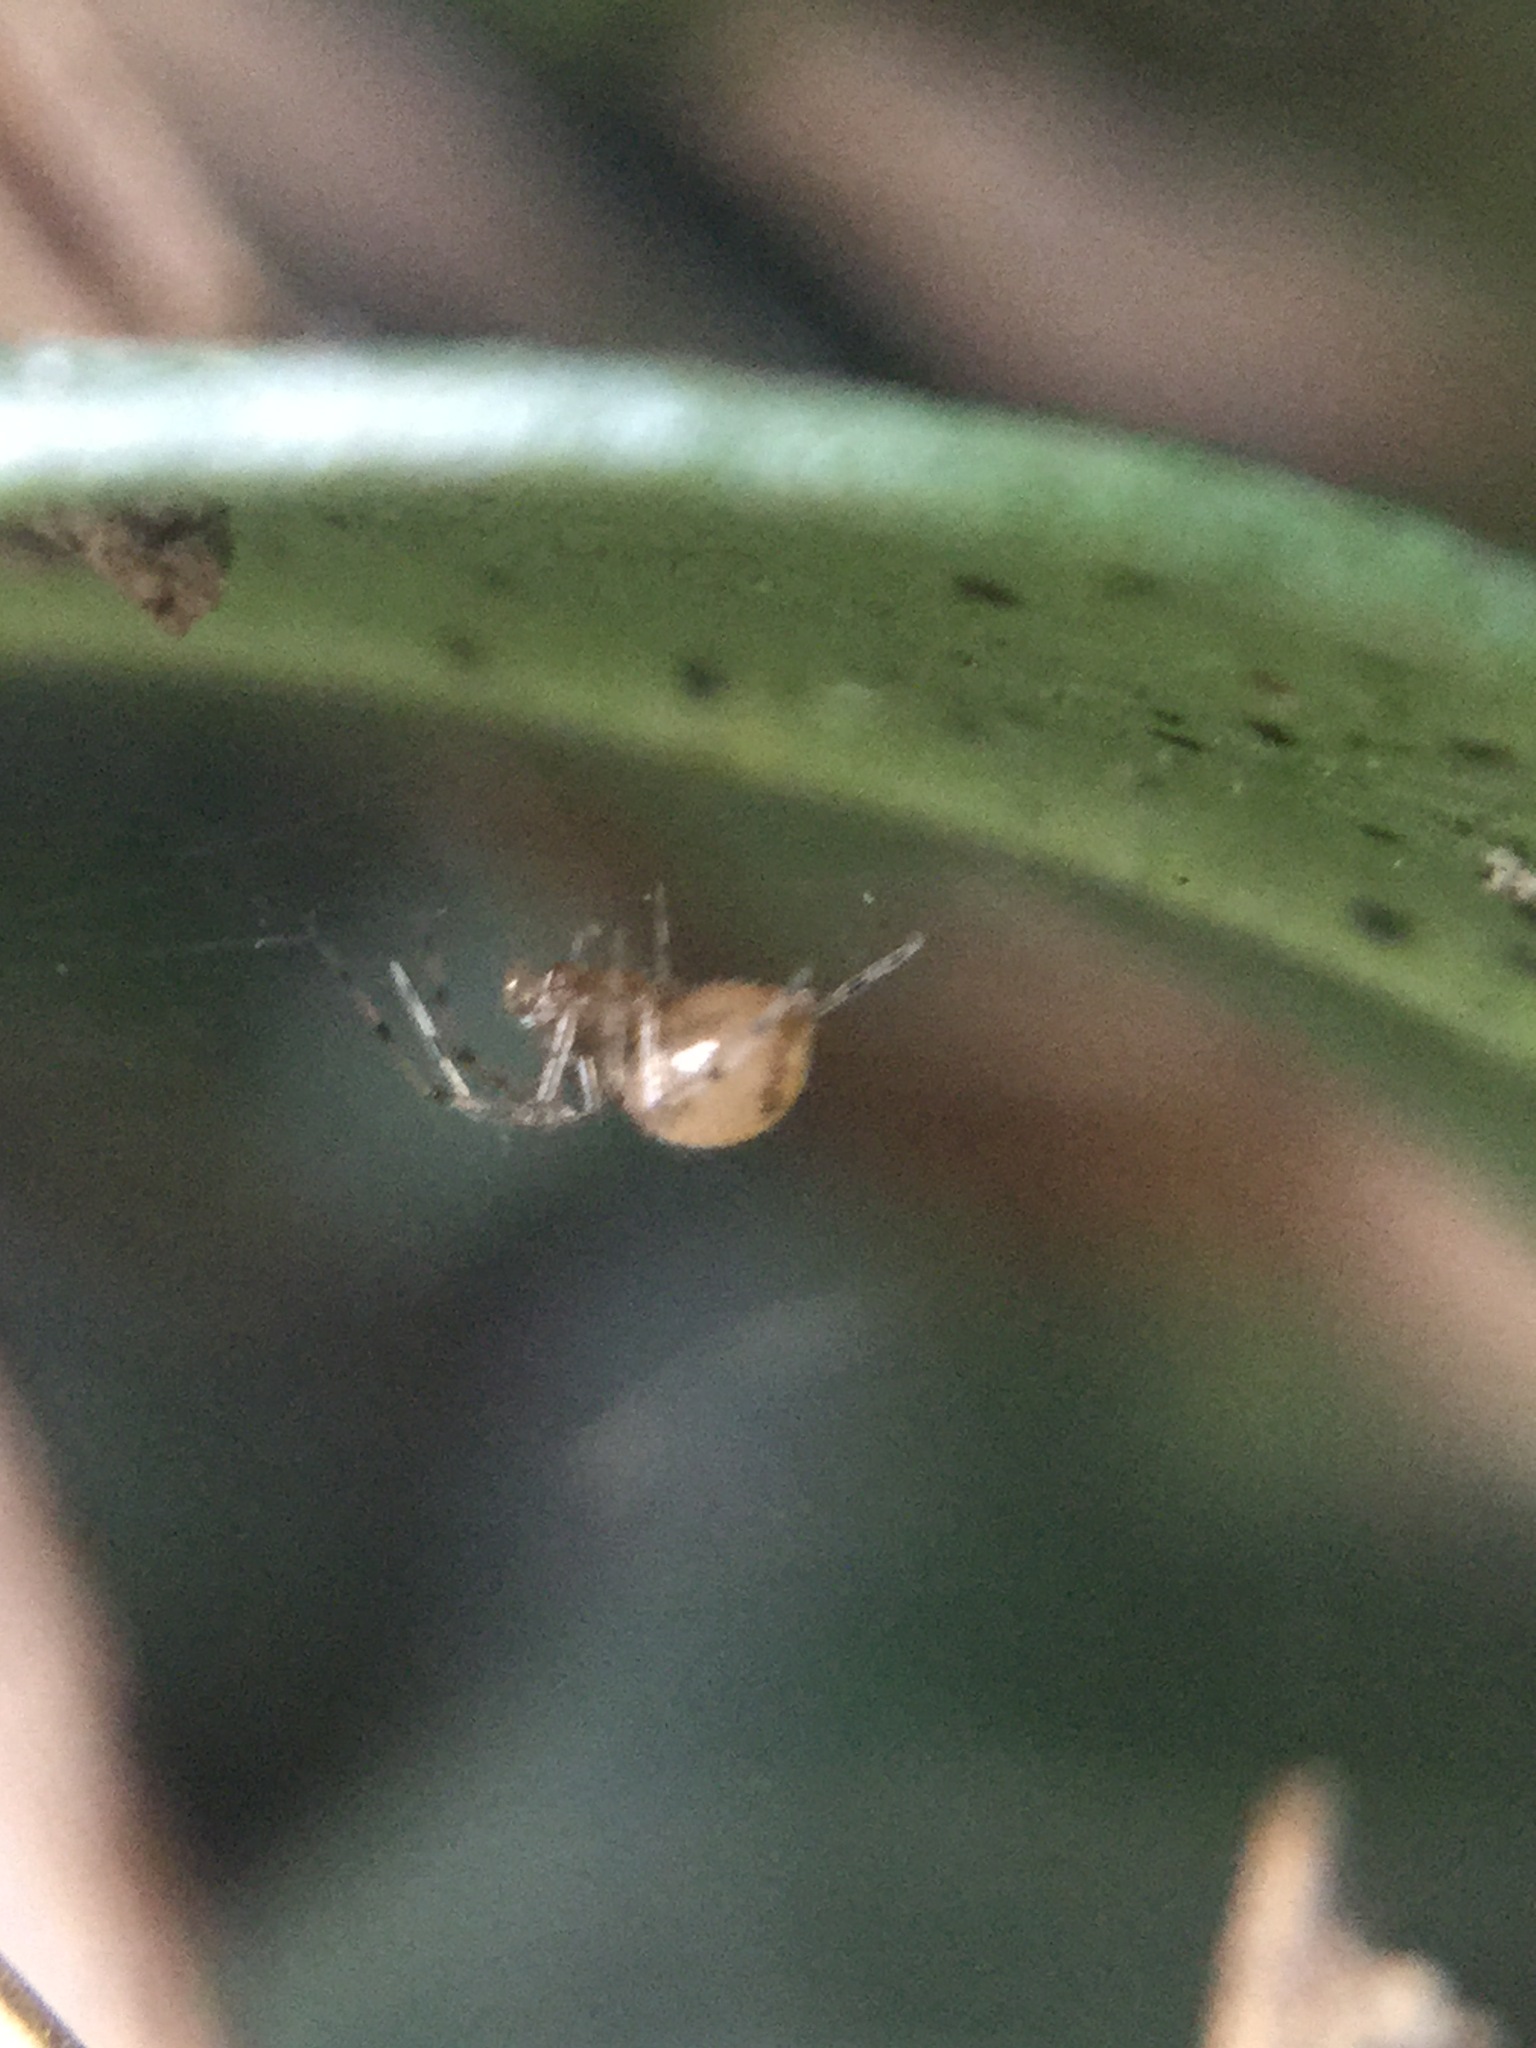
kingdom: Animalia
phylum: Arthropoda
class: Arachnida
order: Araneae
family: Theridiidae
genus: Rugathodes
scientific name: Rugathodes sexpunctatus
